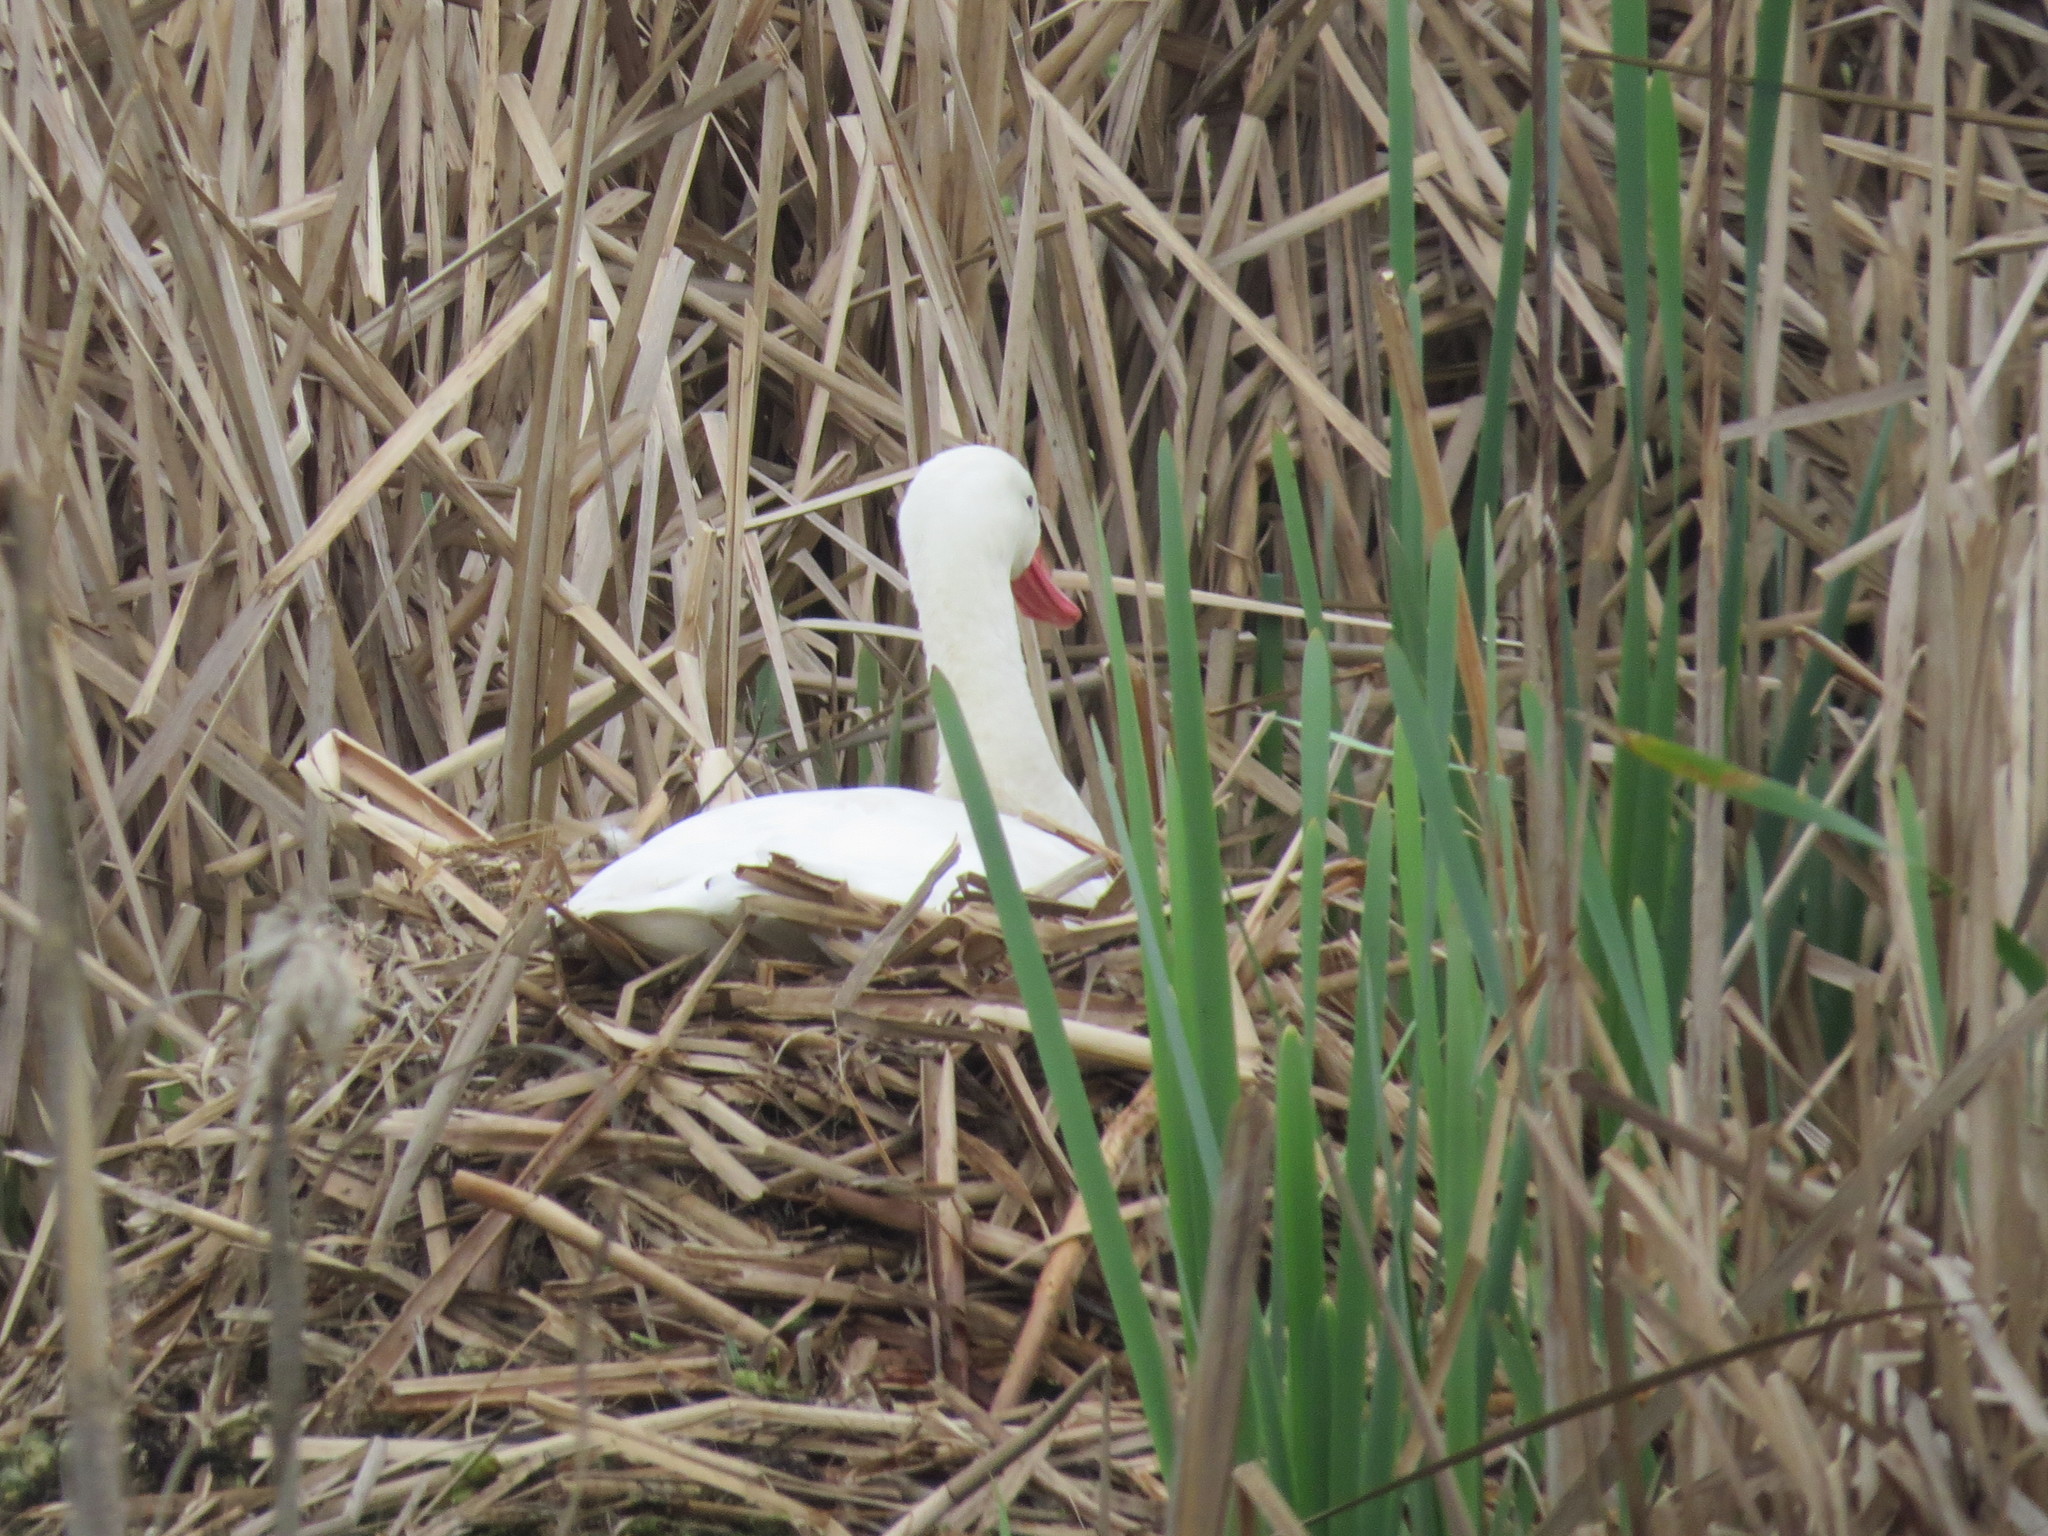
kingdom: Animalia
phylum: Chordata
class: Aves
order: Anseriformes
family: Anatidae
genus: Coscoroba
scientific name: Coscoroba coscoroba
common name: Coscoroba swan
